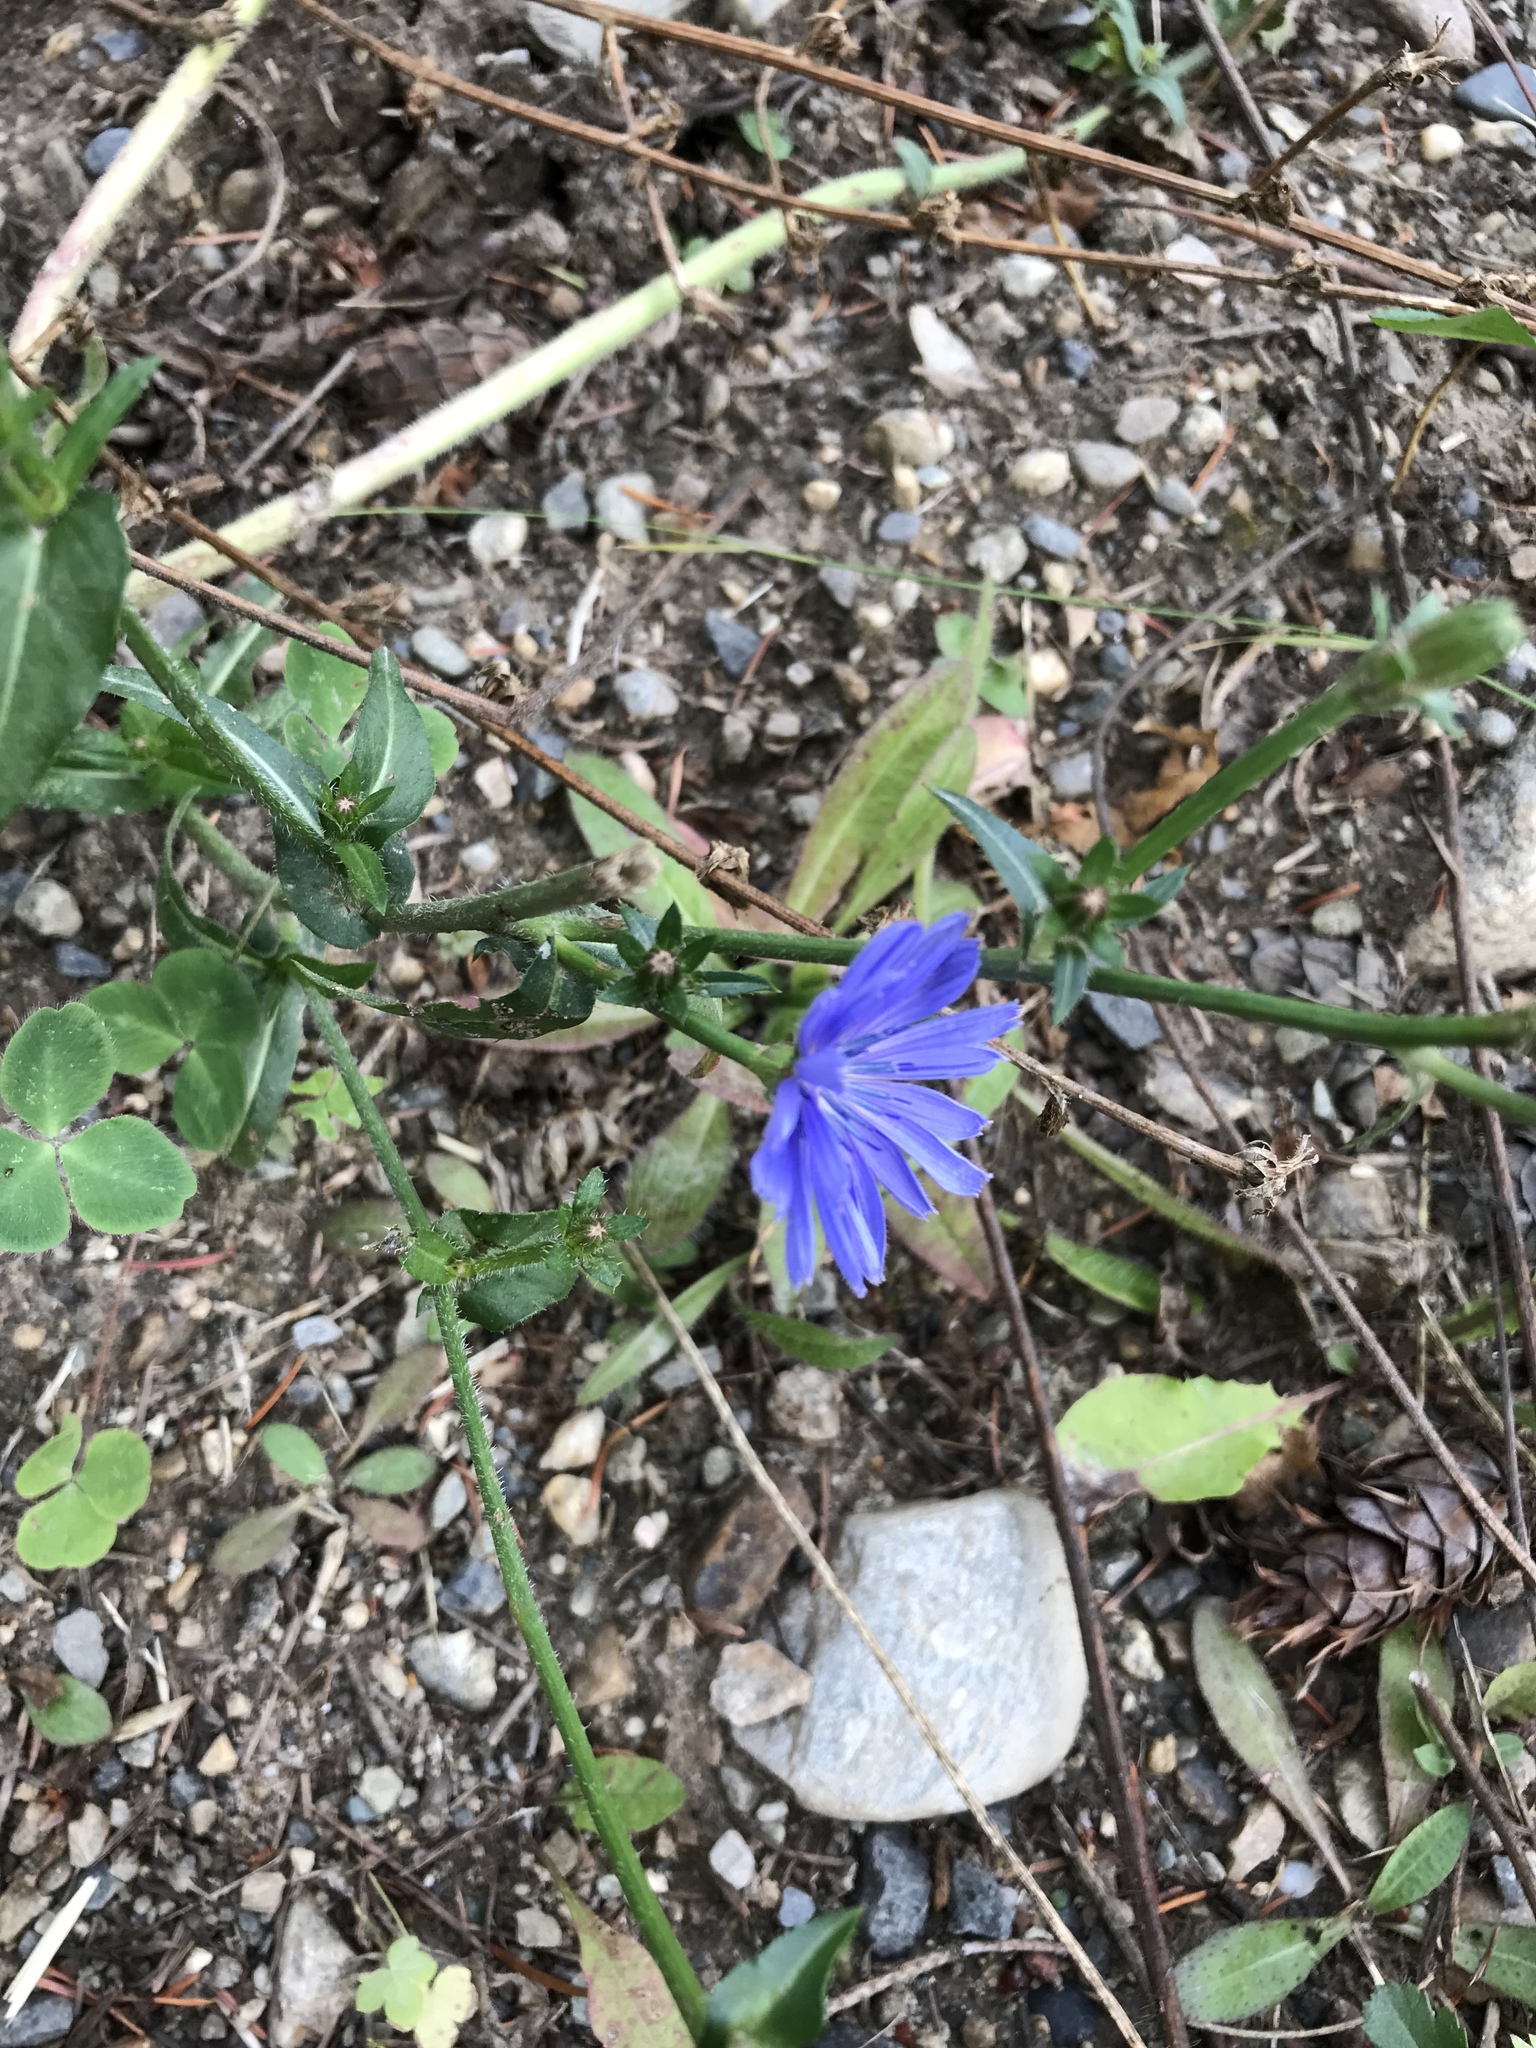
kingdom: Plantae
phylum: Tracheophyta
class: Magnoliopsida
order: Asterales
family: Asteraceae
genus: Cichorium
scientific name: Cichorium intybus
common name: Chicory
